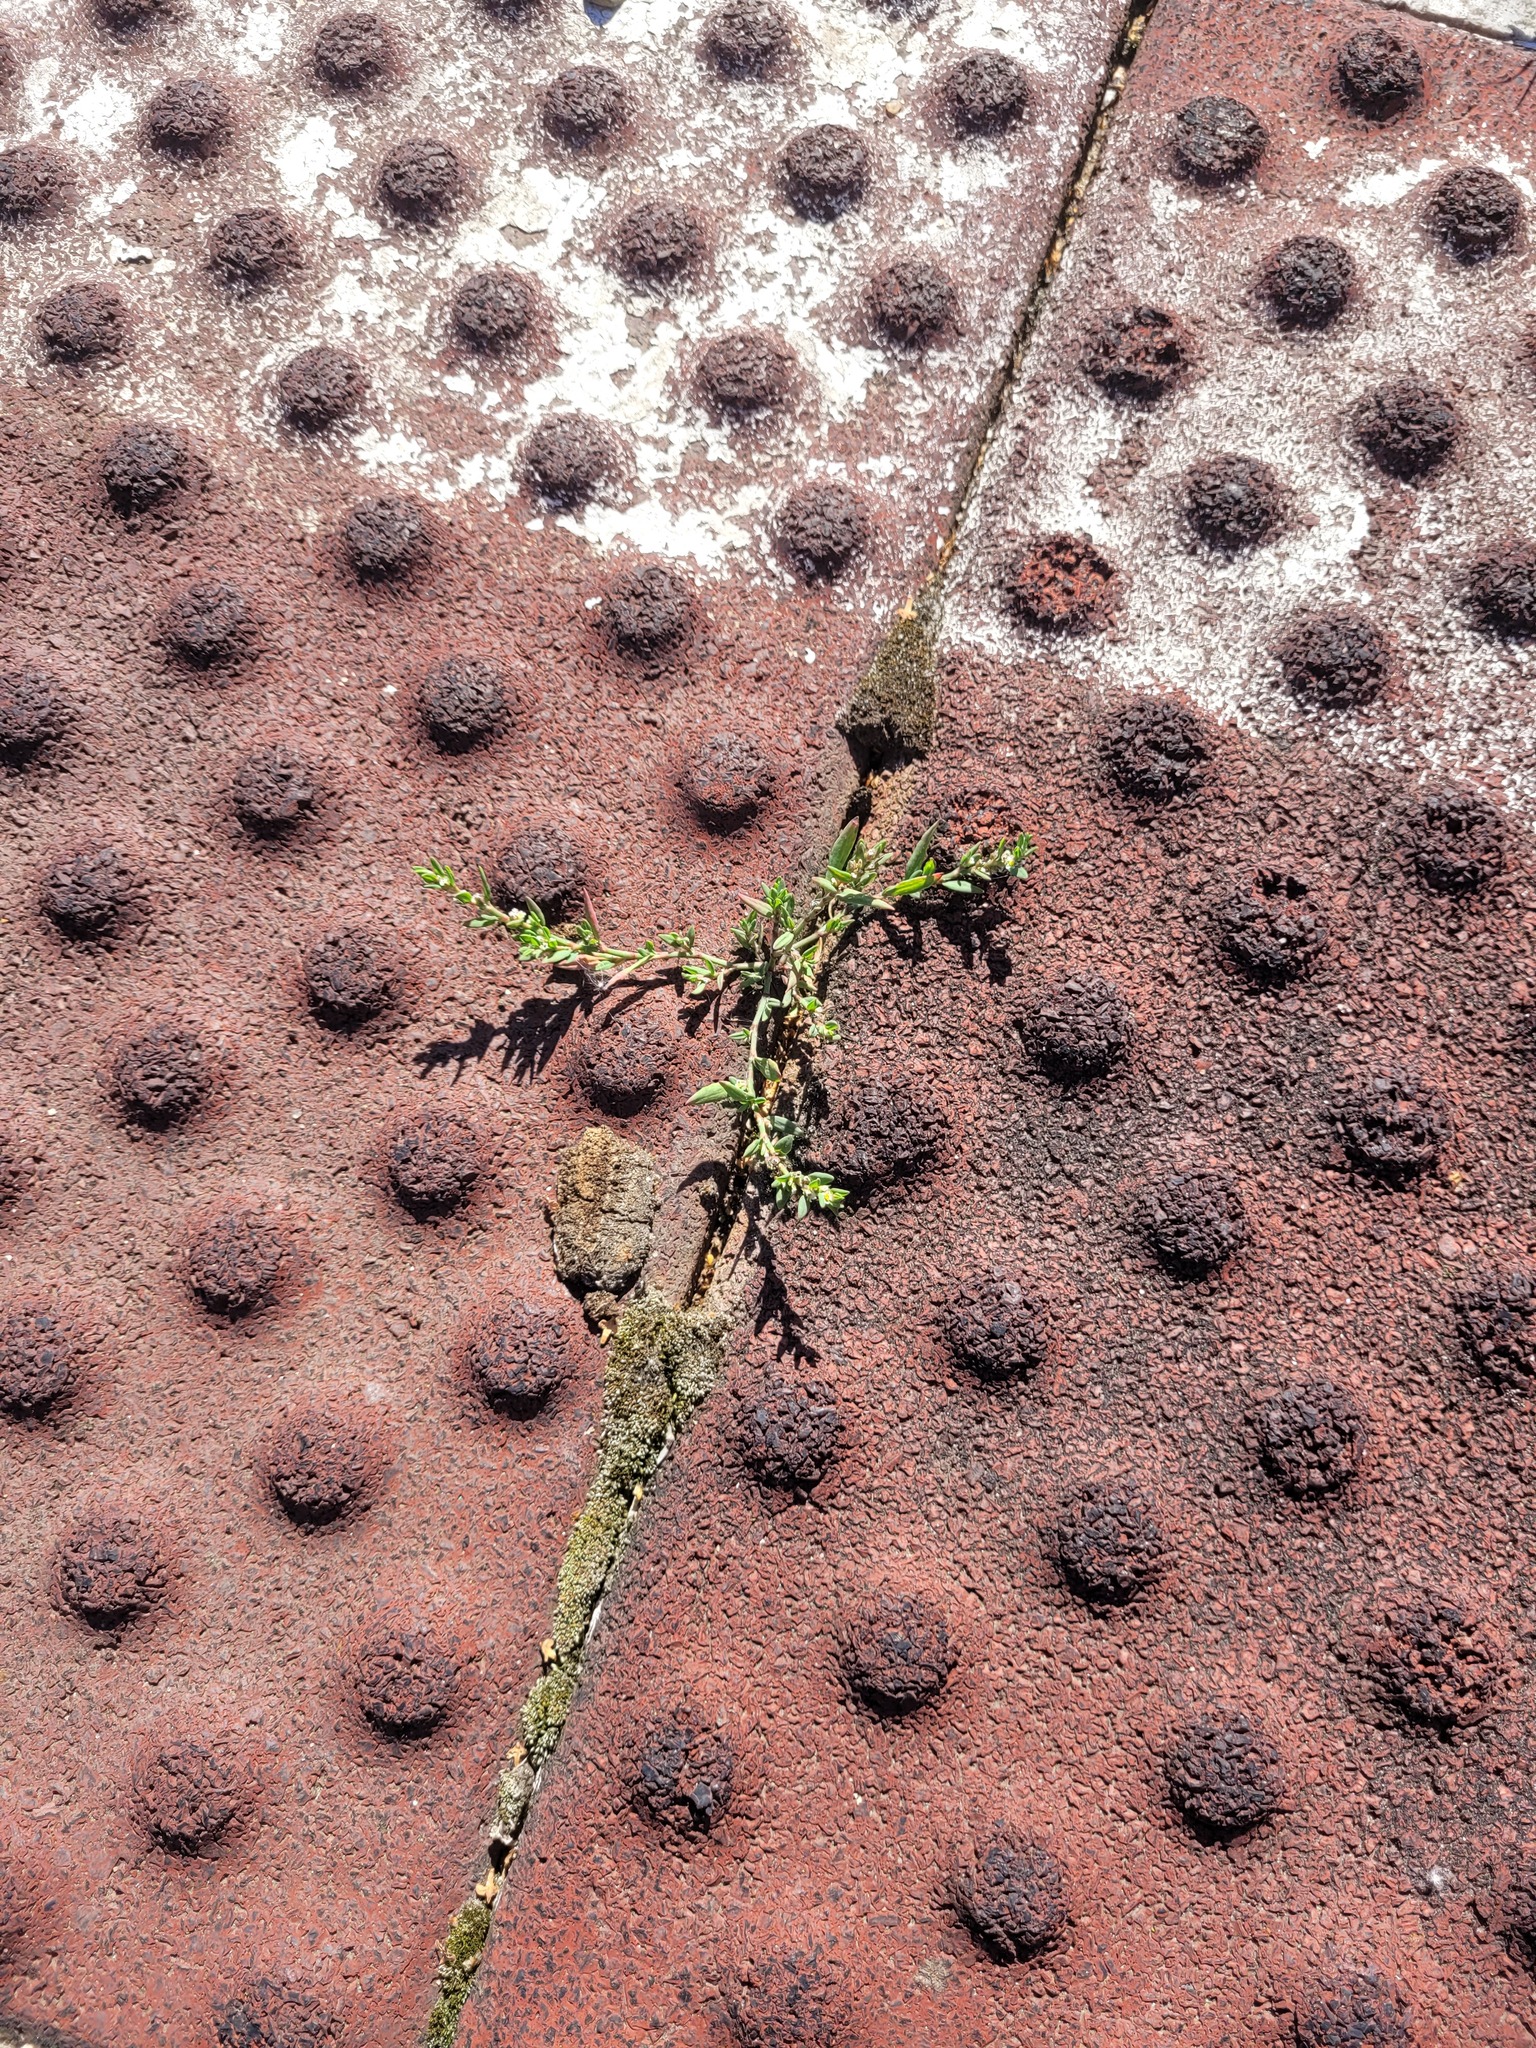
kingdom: Plantae
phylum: Tracheophyta
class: Magnoliopsida
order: Caryophyllales
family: Polygonaceae
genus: Polygonum
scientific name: Polygonum
